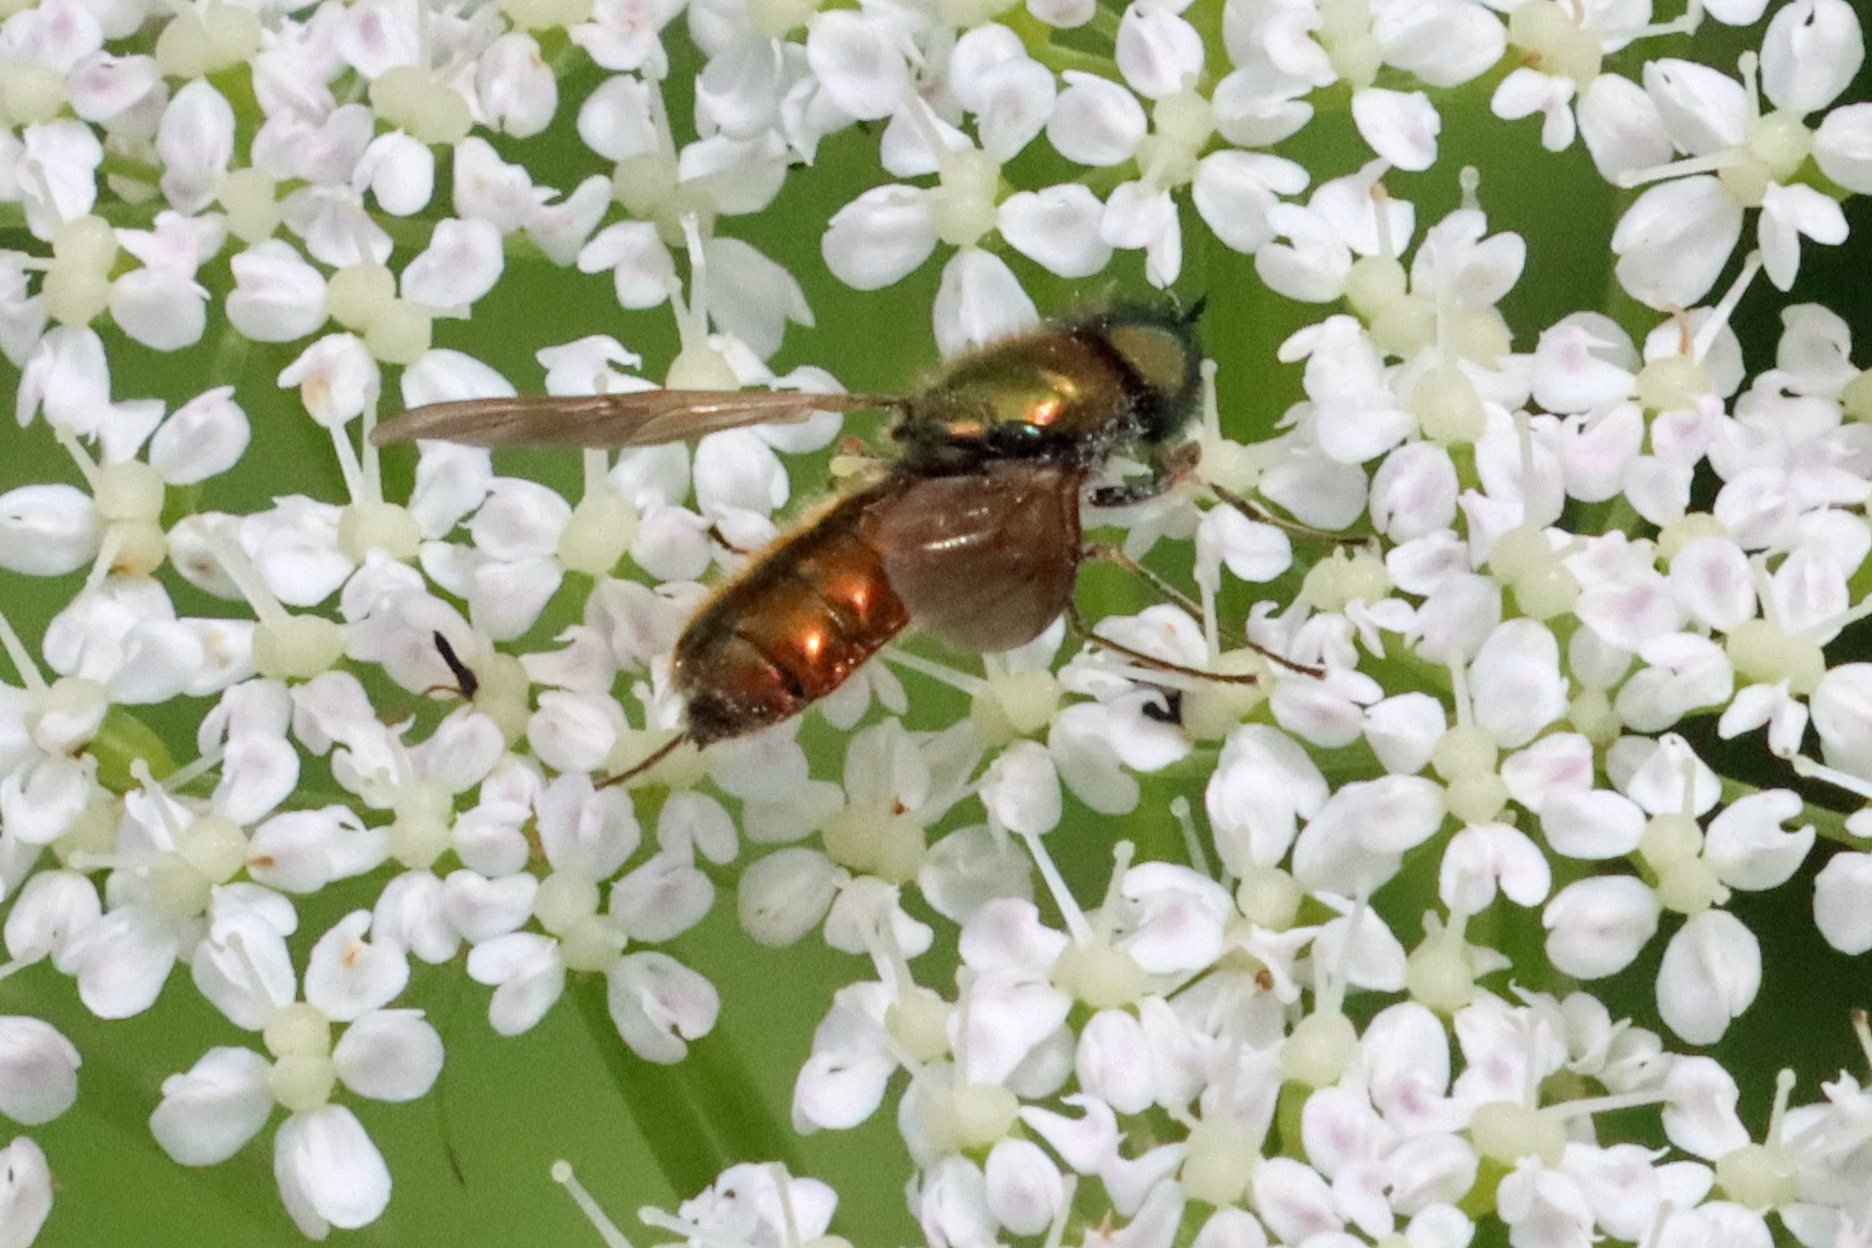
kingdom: Animalia
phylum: Arthropoda
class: Insecta
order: Diptera
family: Stratiomyidae
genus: Chloromyia
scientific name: Chloromyia formosa
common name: Soldier fly
